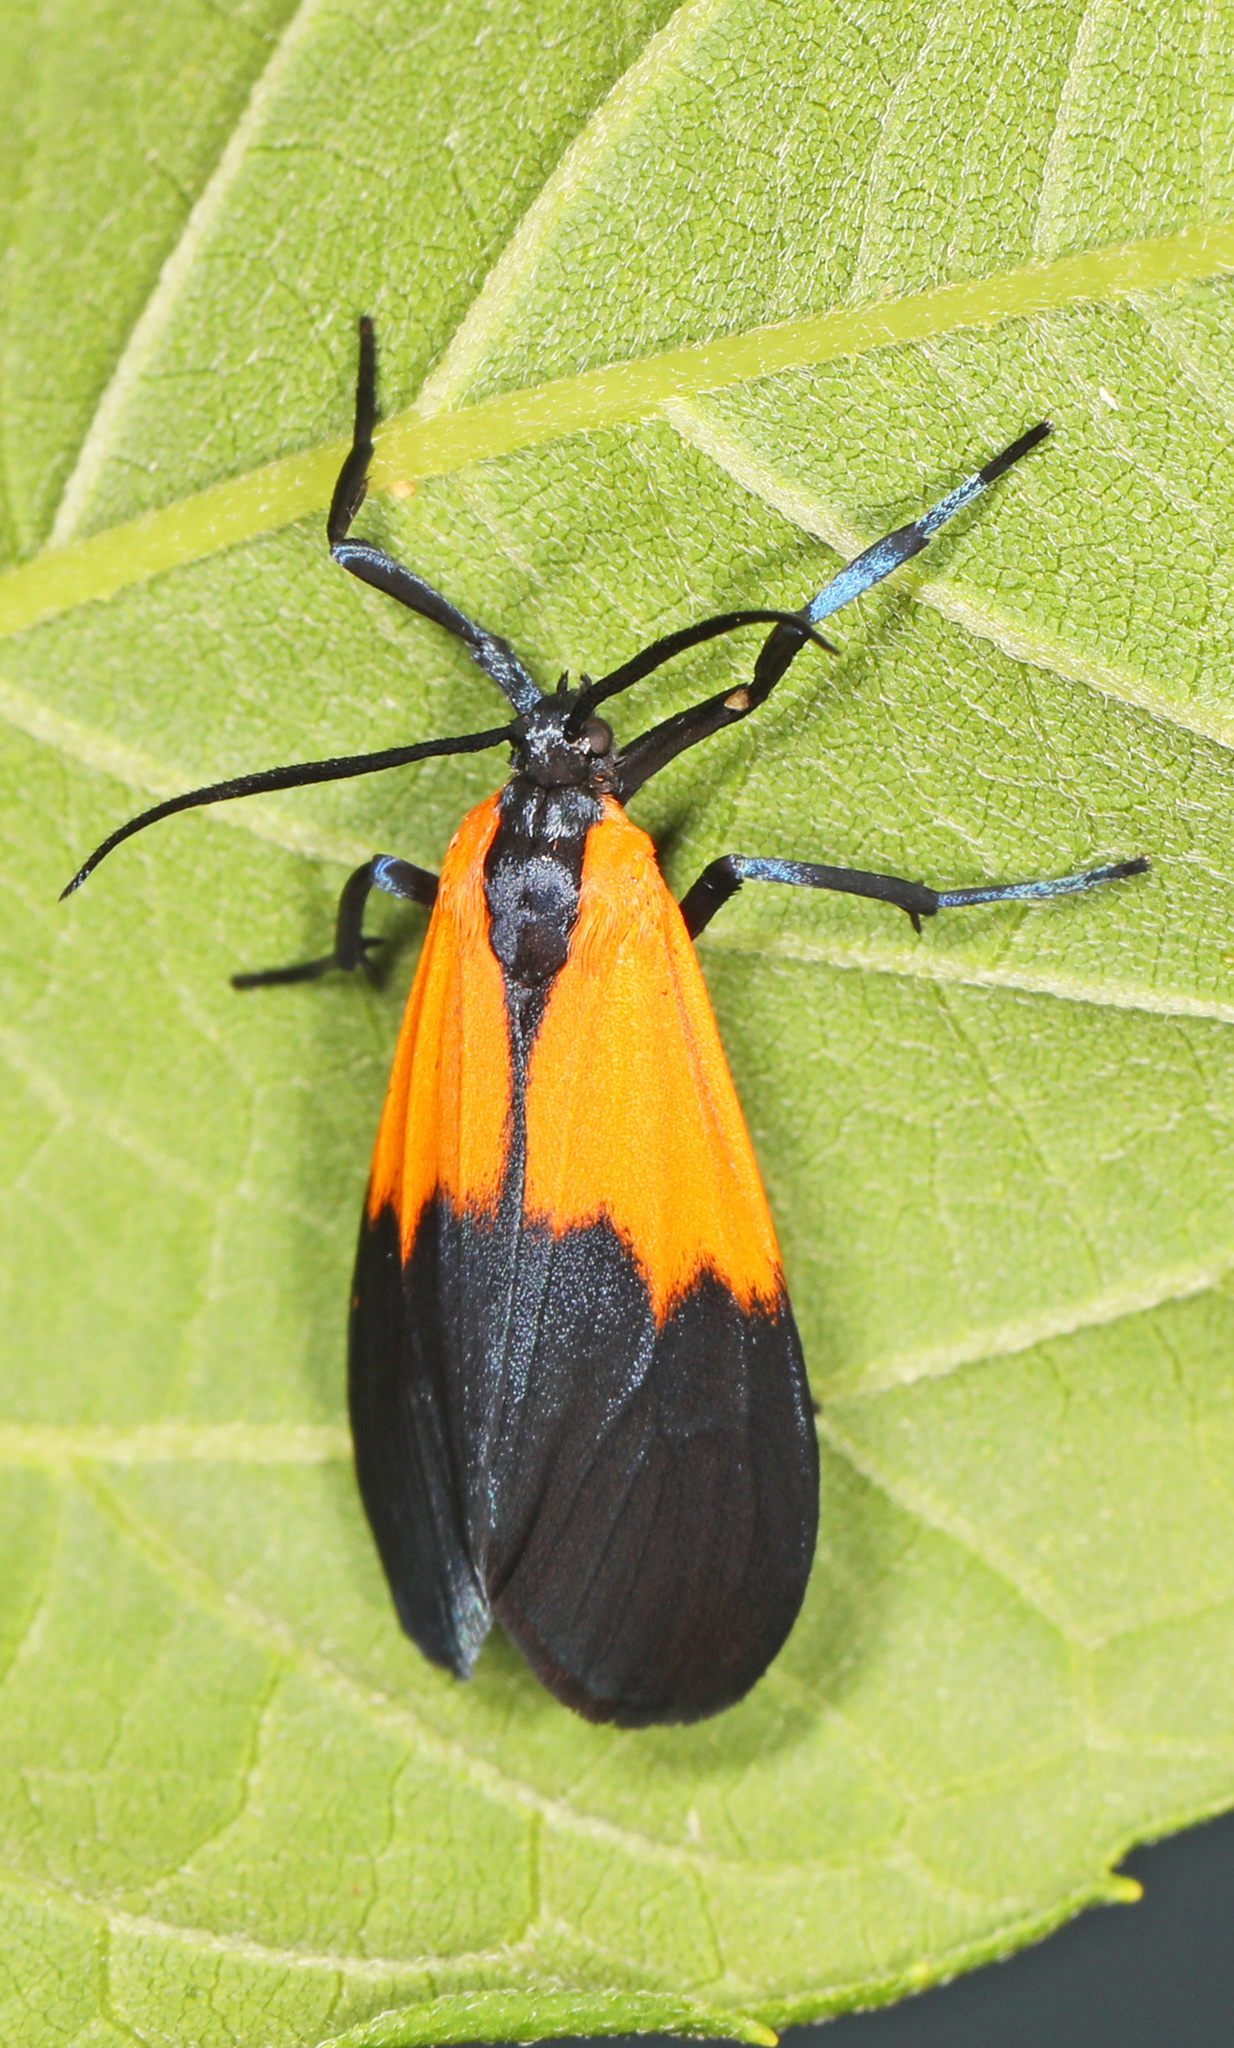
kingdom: Animalia
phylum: Arthropoda
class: Insecta
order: Lepidoptera
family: Erebidae
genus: Lycomorpha
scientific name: Lycomorpha pholus
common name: Black-and-yellow lichen moth
